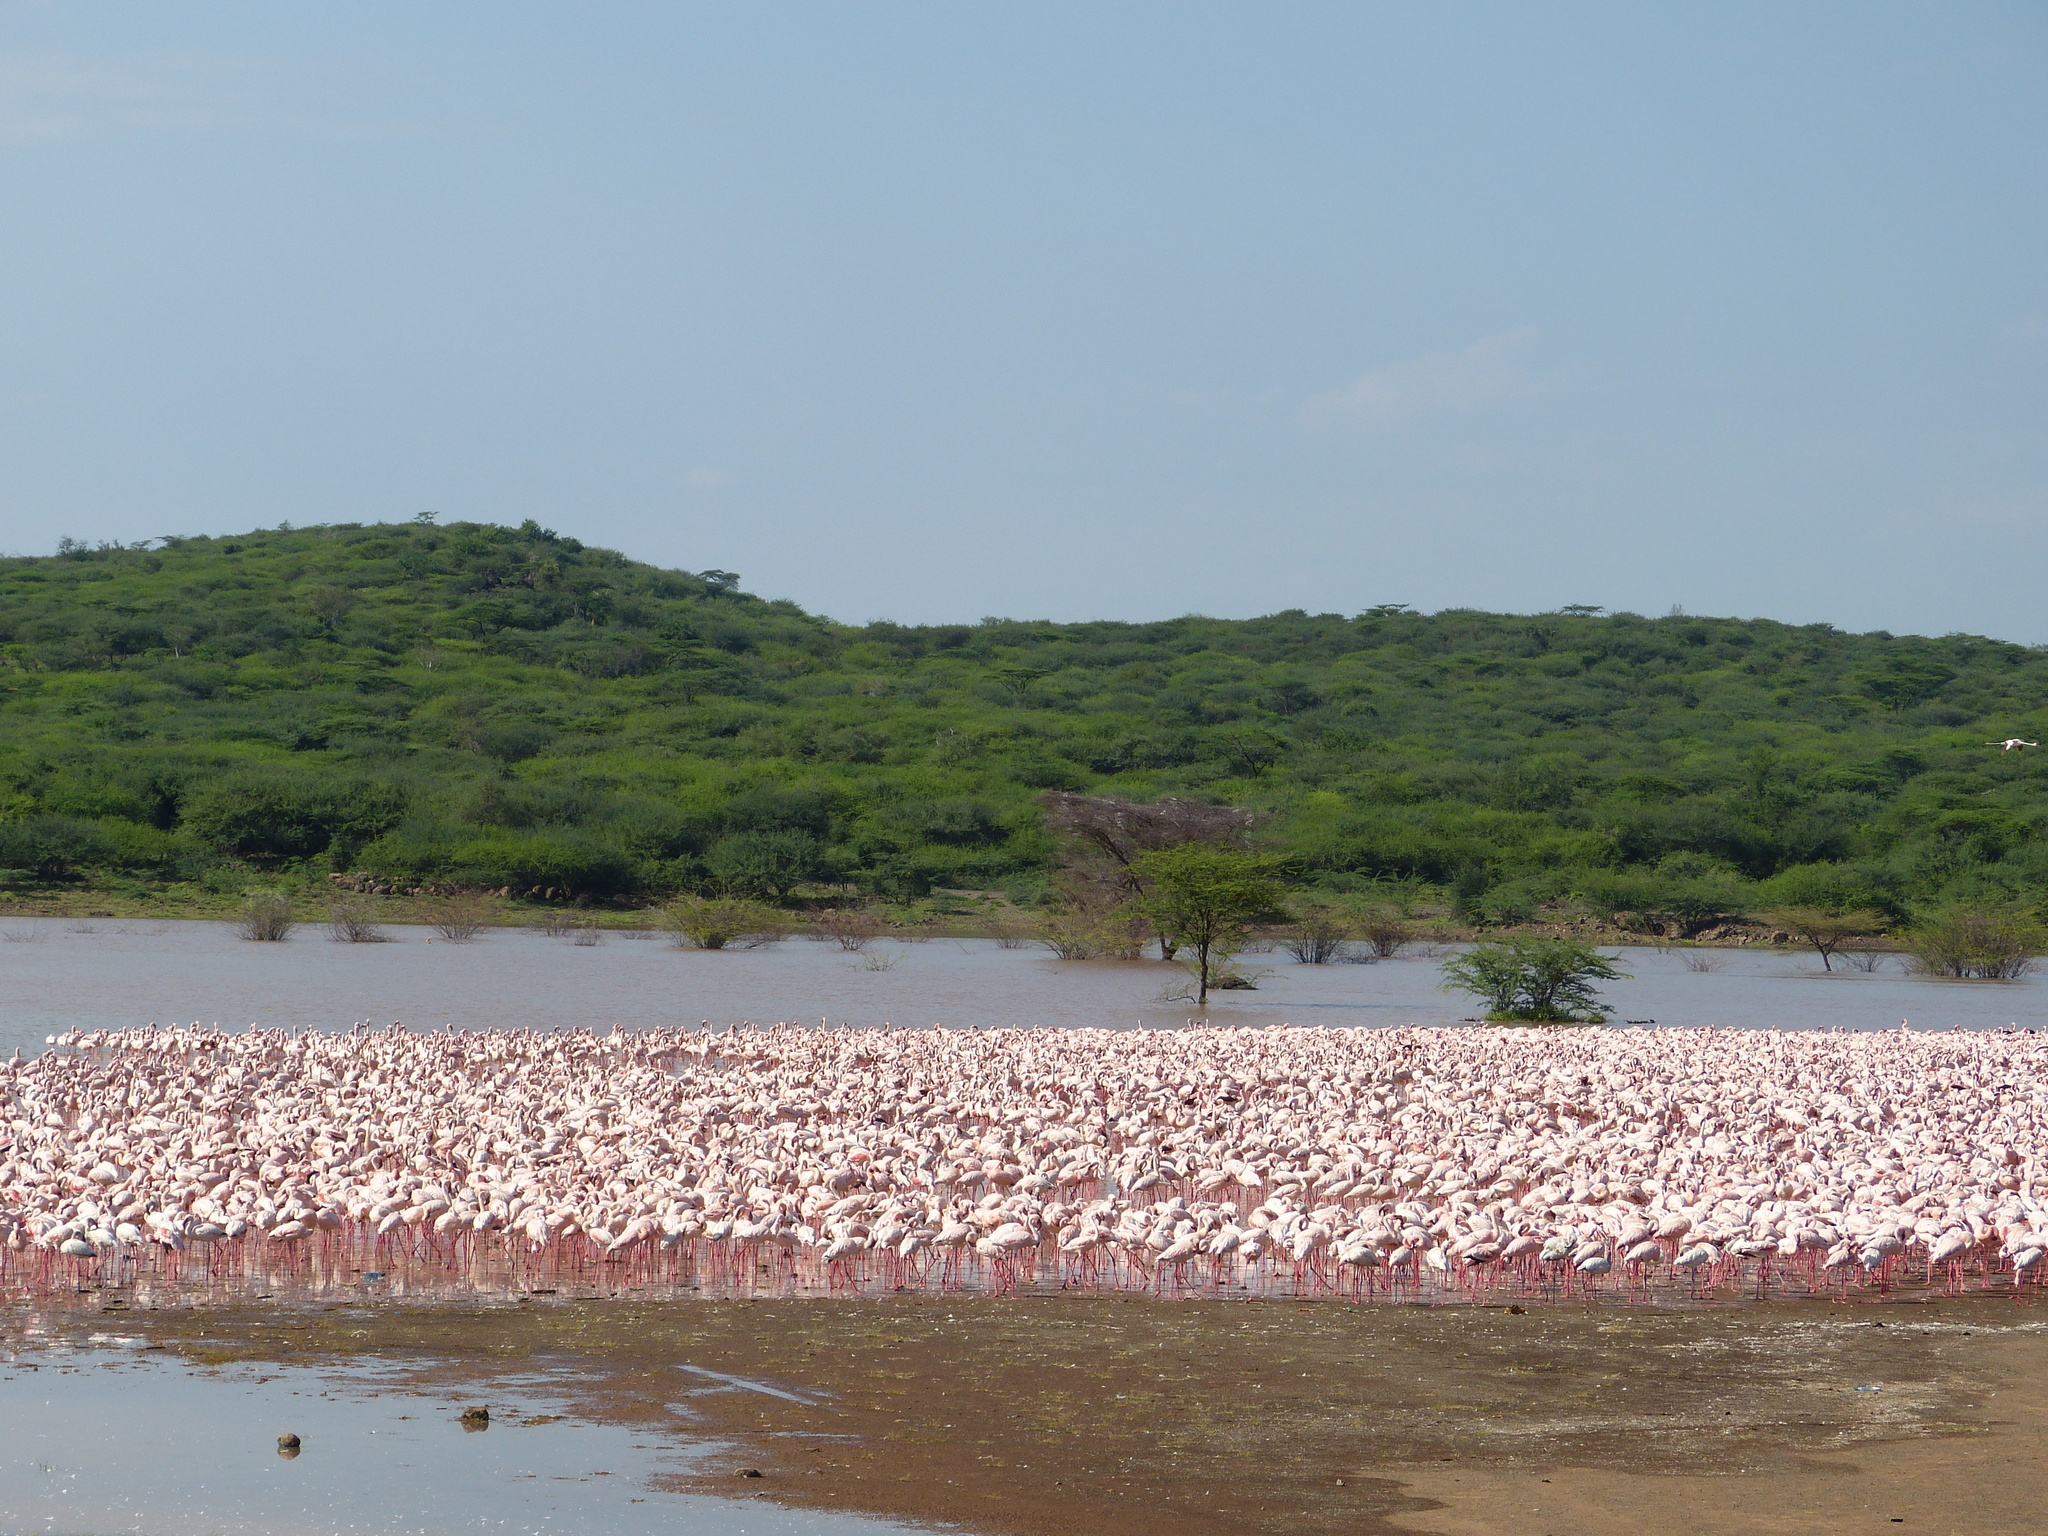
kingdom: Animalia
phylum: Chordata
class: Aves
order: Phoenicopteriformes
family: Phoenicopteridae
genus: Phoeniconaias
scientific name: Phoeniconaias minor
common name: Lesser flamingo
